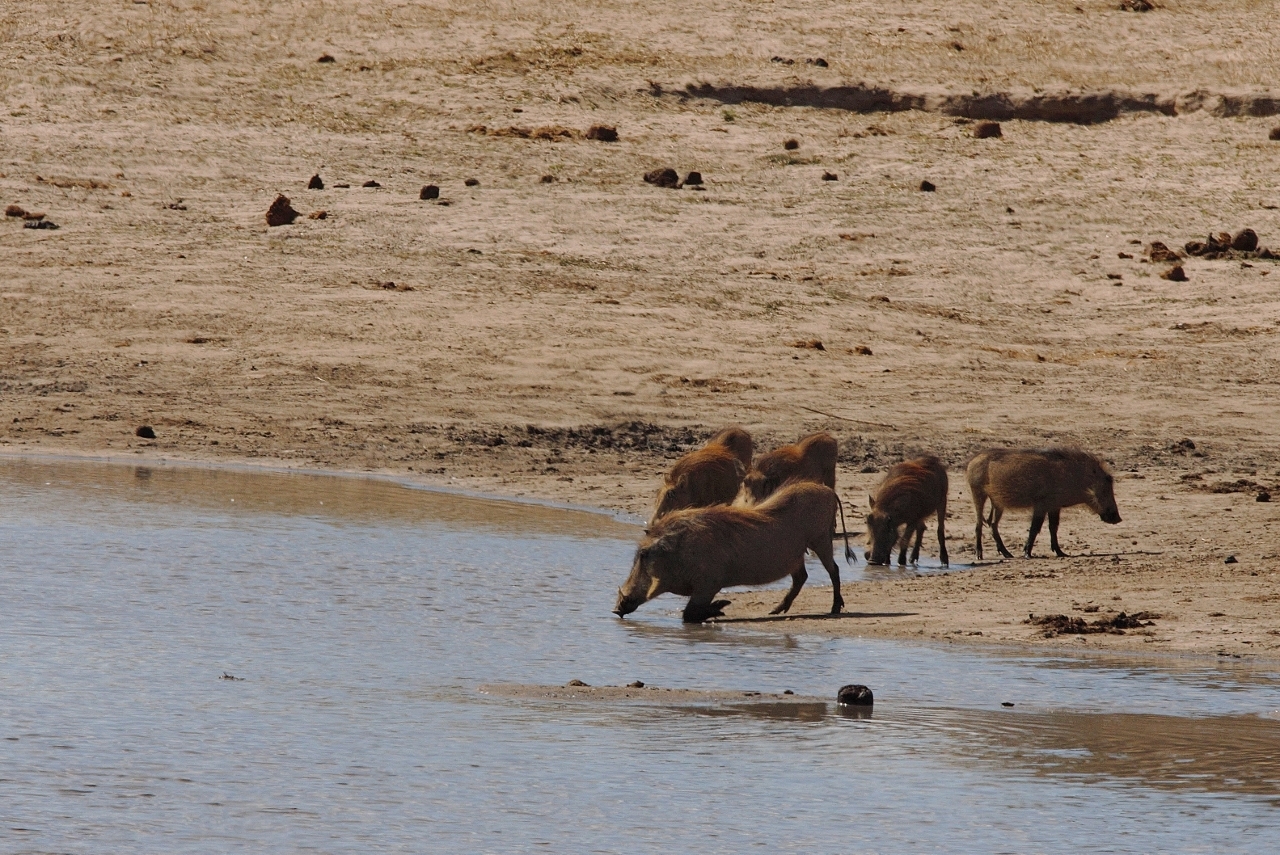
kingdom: Animalia
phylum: Chordata
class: Mammalia
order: Artiodactyla
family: Suidae
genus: Phacochoerus
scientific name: Phacochoerus africanus
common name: Common warthog
